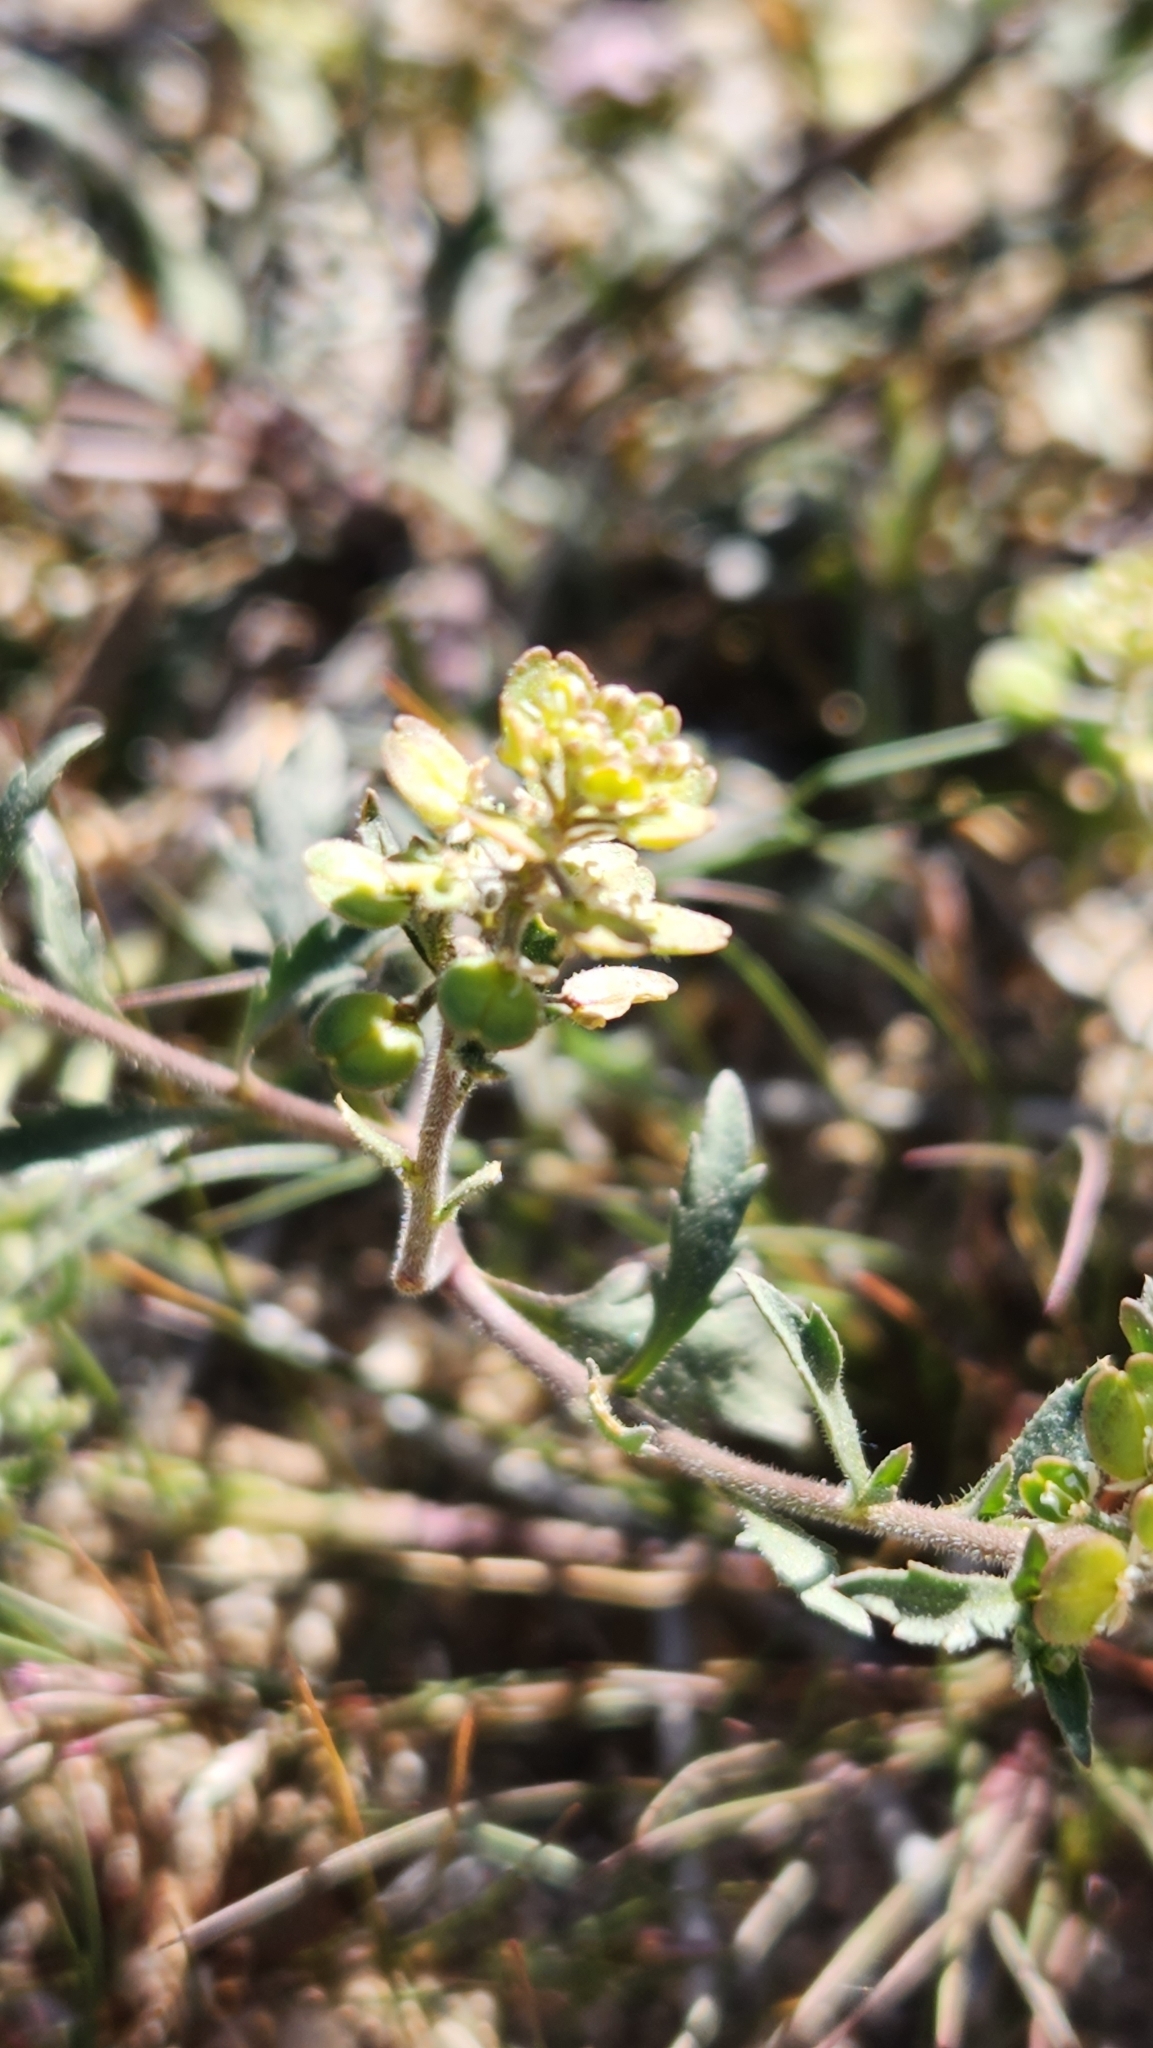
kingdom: Plantae
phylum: Tracheophyta
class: Magnoliopsida
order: Brassicales
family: Brassicaceae
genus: Lepidium
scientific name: Lepidium lasiocarpum
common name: Hairy-pod pepperwort
